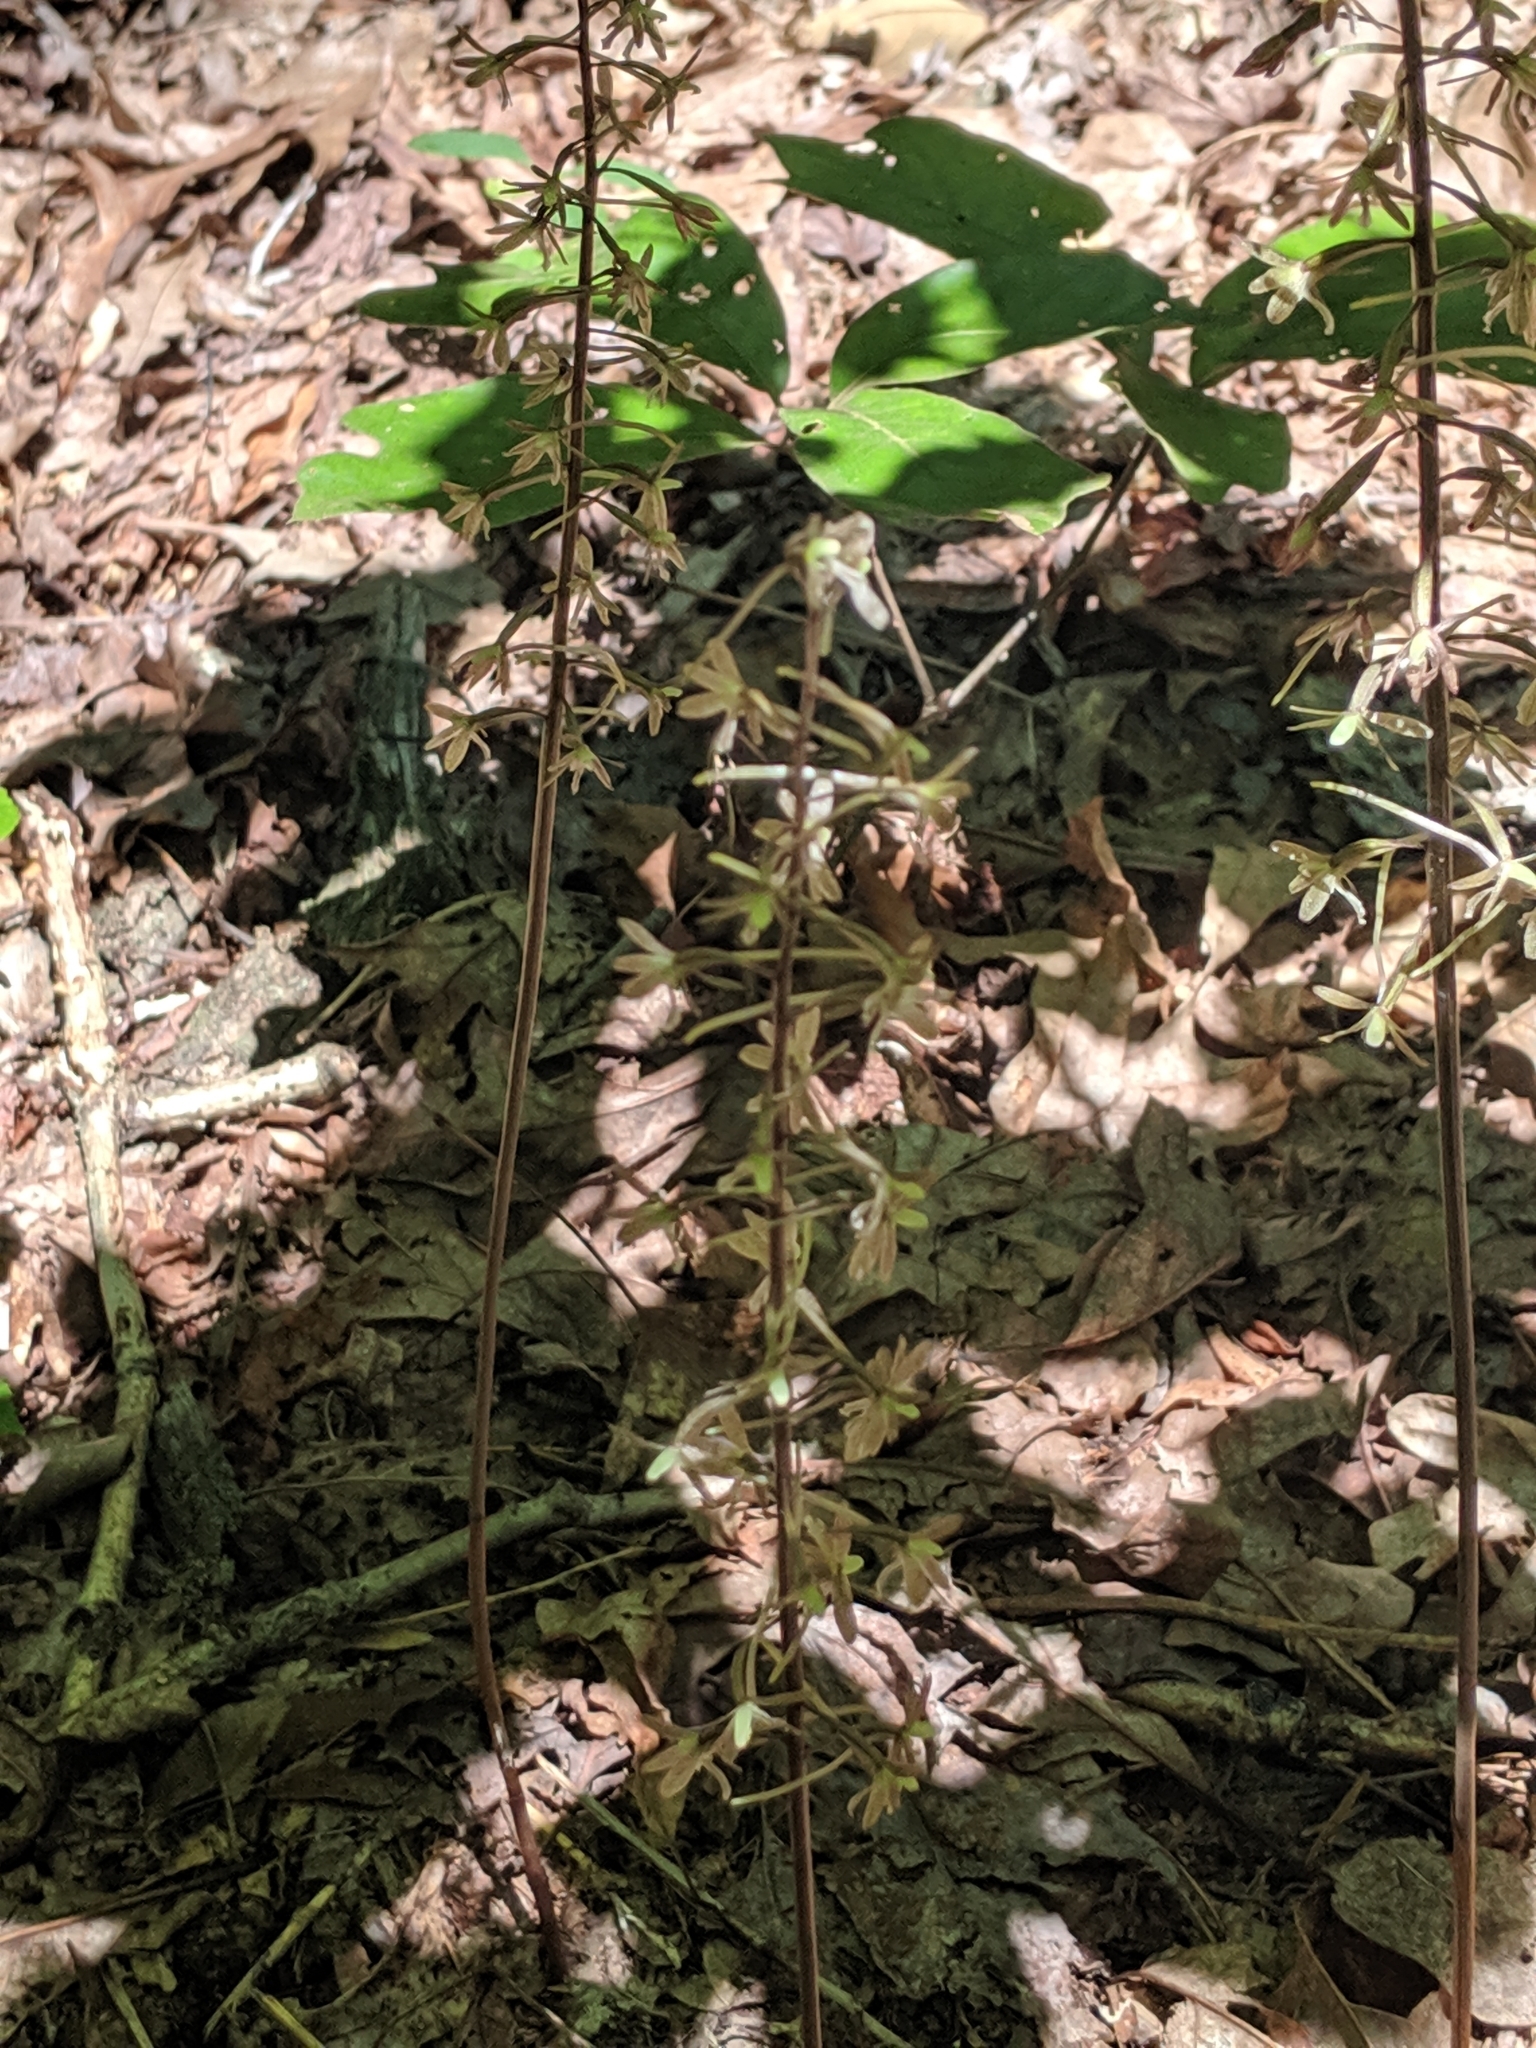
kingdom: Plantae
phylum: Tracheophyta
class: Liliopsida
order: Asparagales
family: Orchidaceae
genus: Tipularia
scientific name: Tipularia discolor
